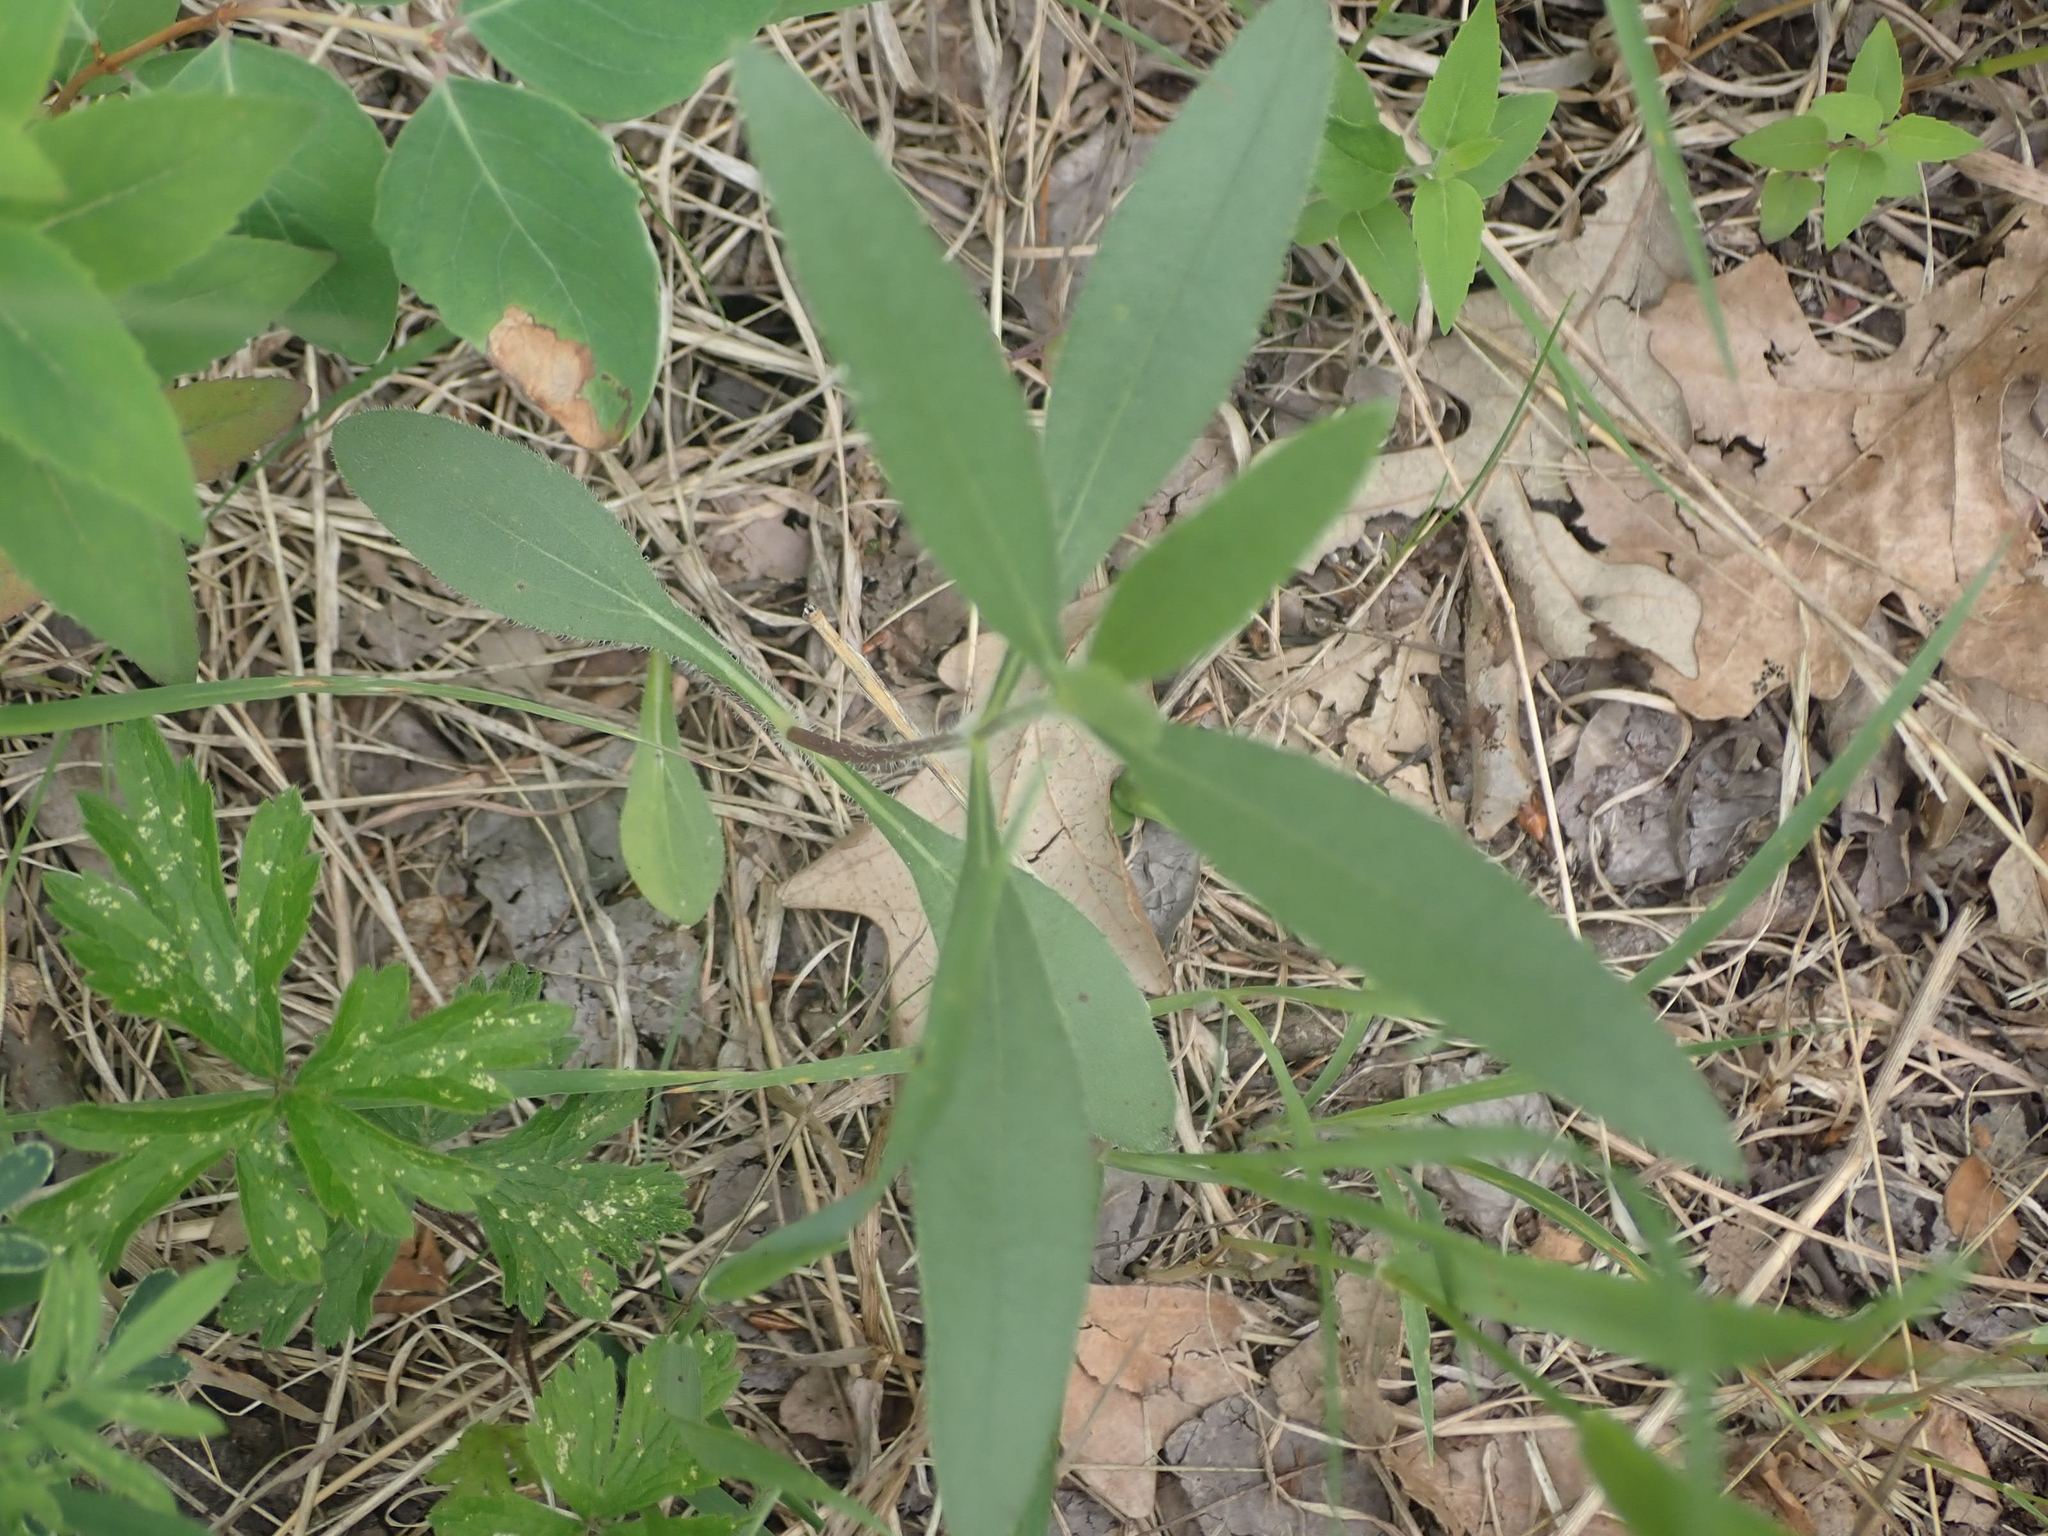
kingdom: Plantae
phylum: Tracheophyta
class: Magnoliopsida
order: Asterales
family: Asteraceae
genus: Helianthus
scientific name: Helianthus pauciflorus
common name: Stiff sunflower
